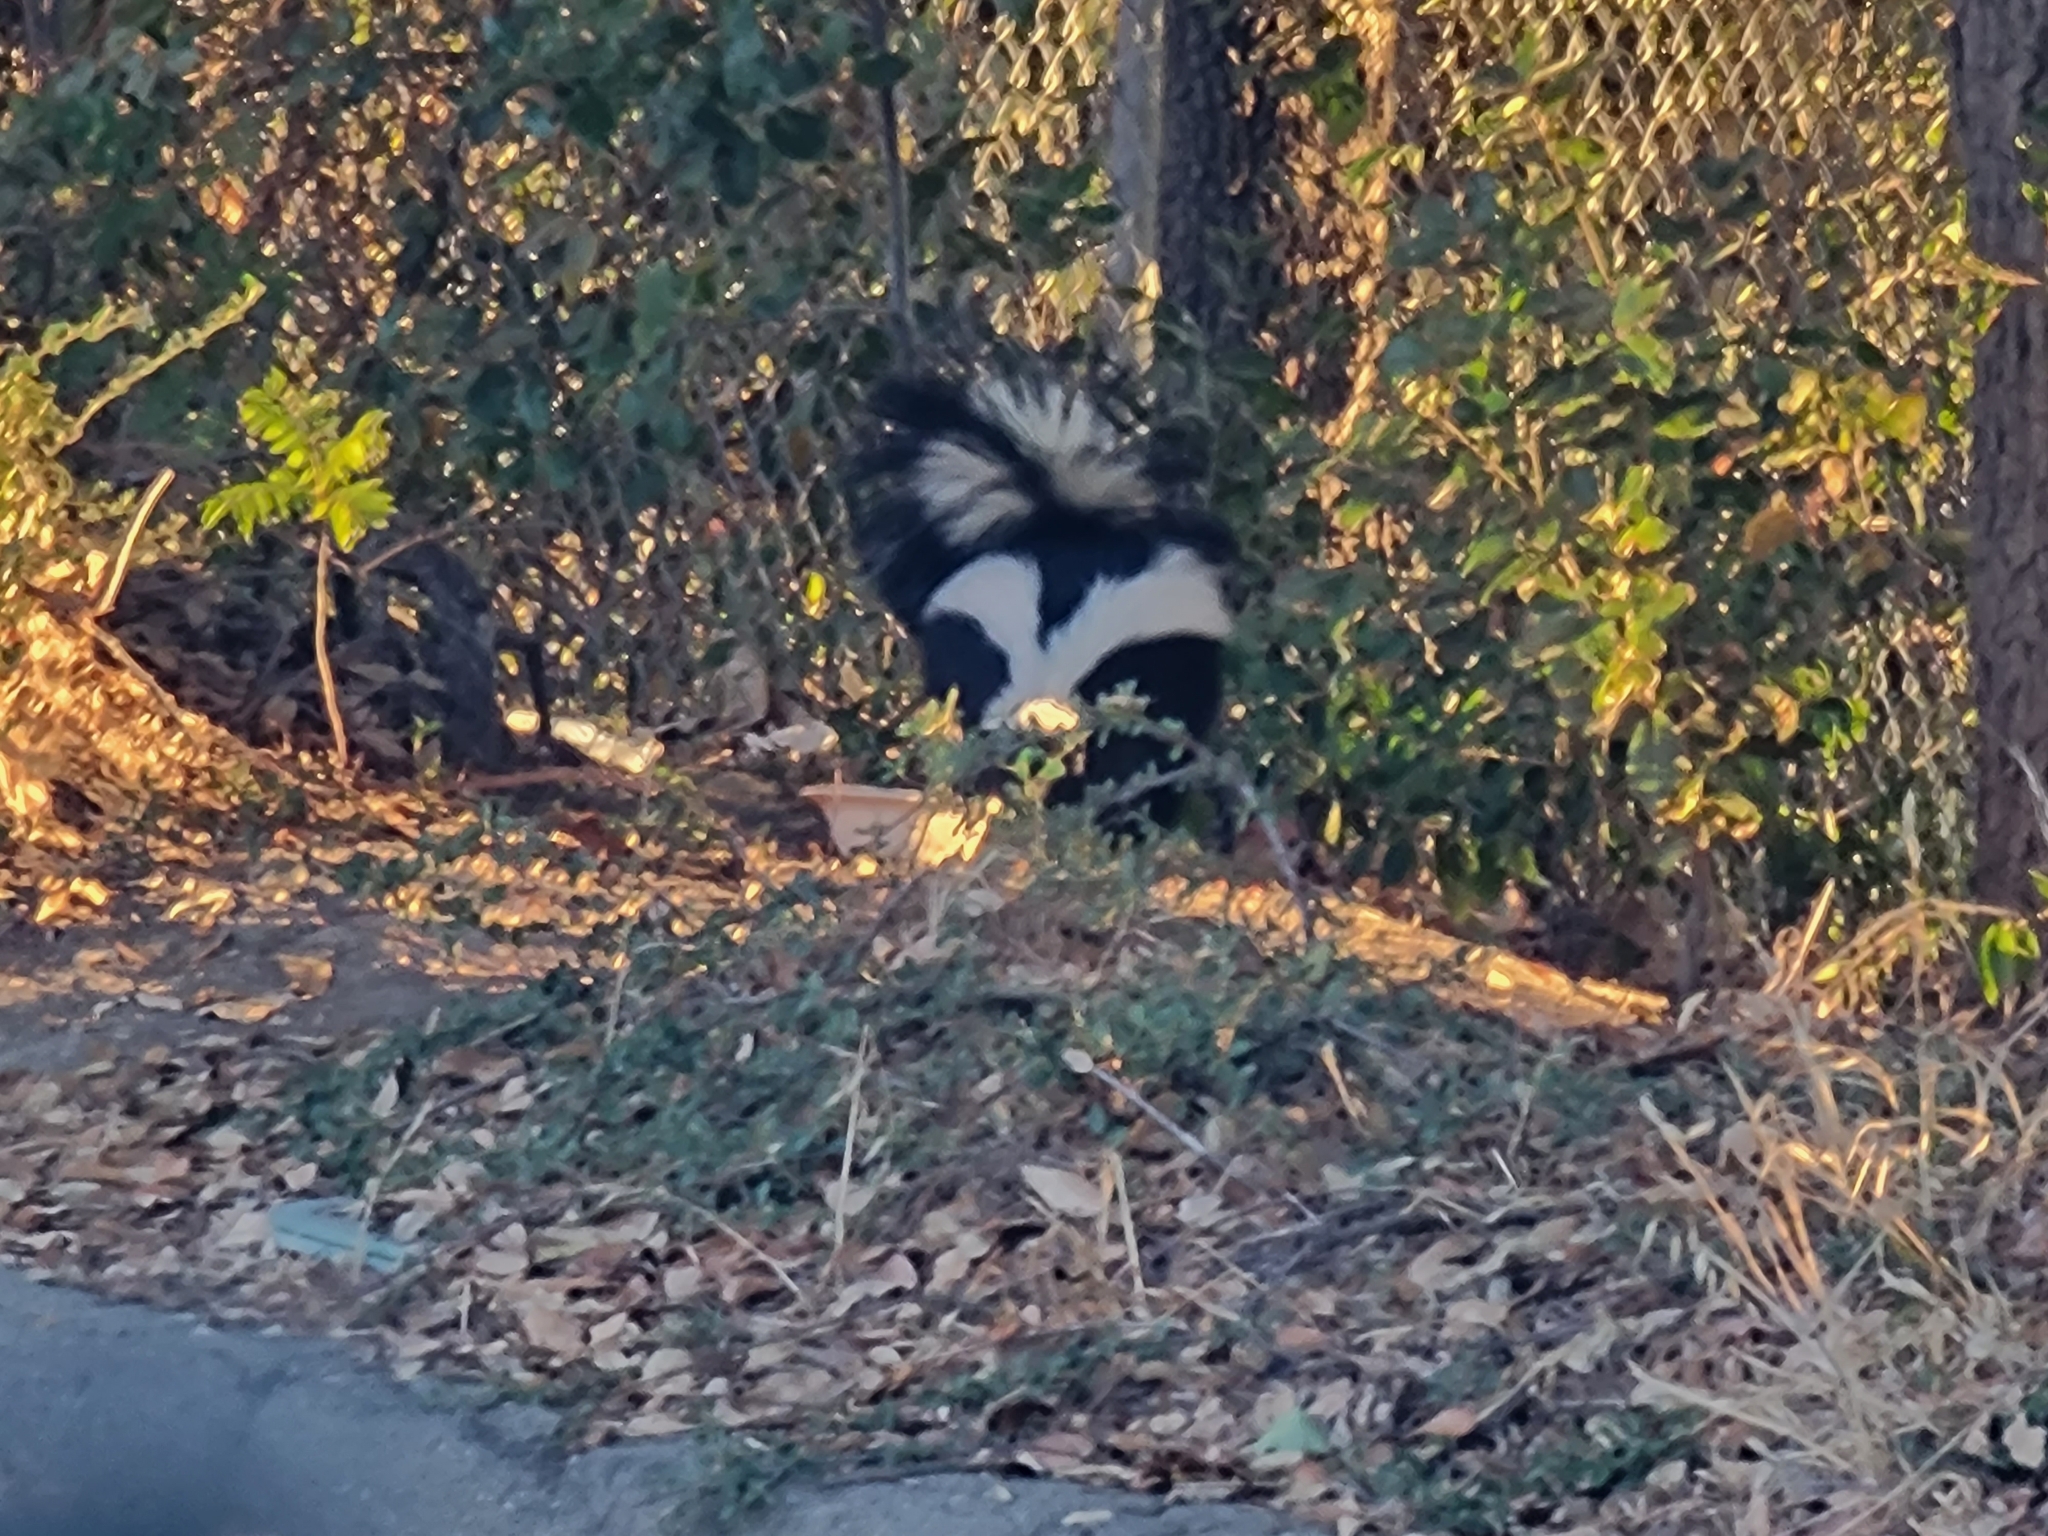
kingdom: Animalia
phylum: Chordata
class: Mammalia
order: Carnivora
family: Mephitidae
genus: Mephitis
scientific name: Mephitis mephitis
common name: Striped skunk
